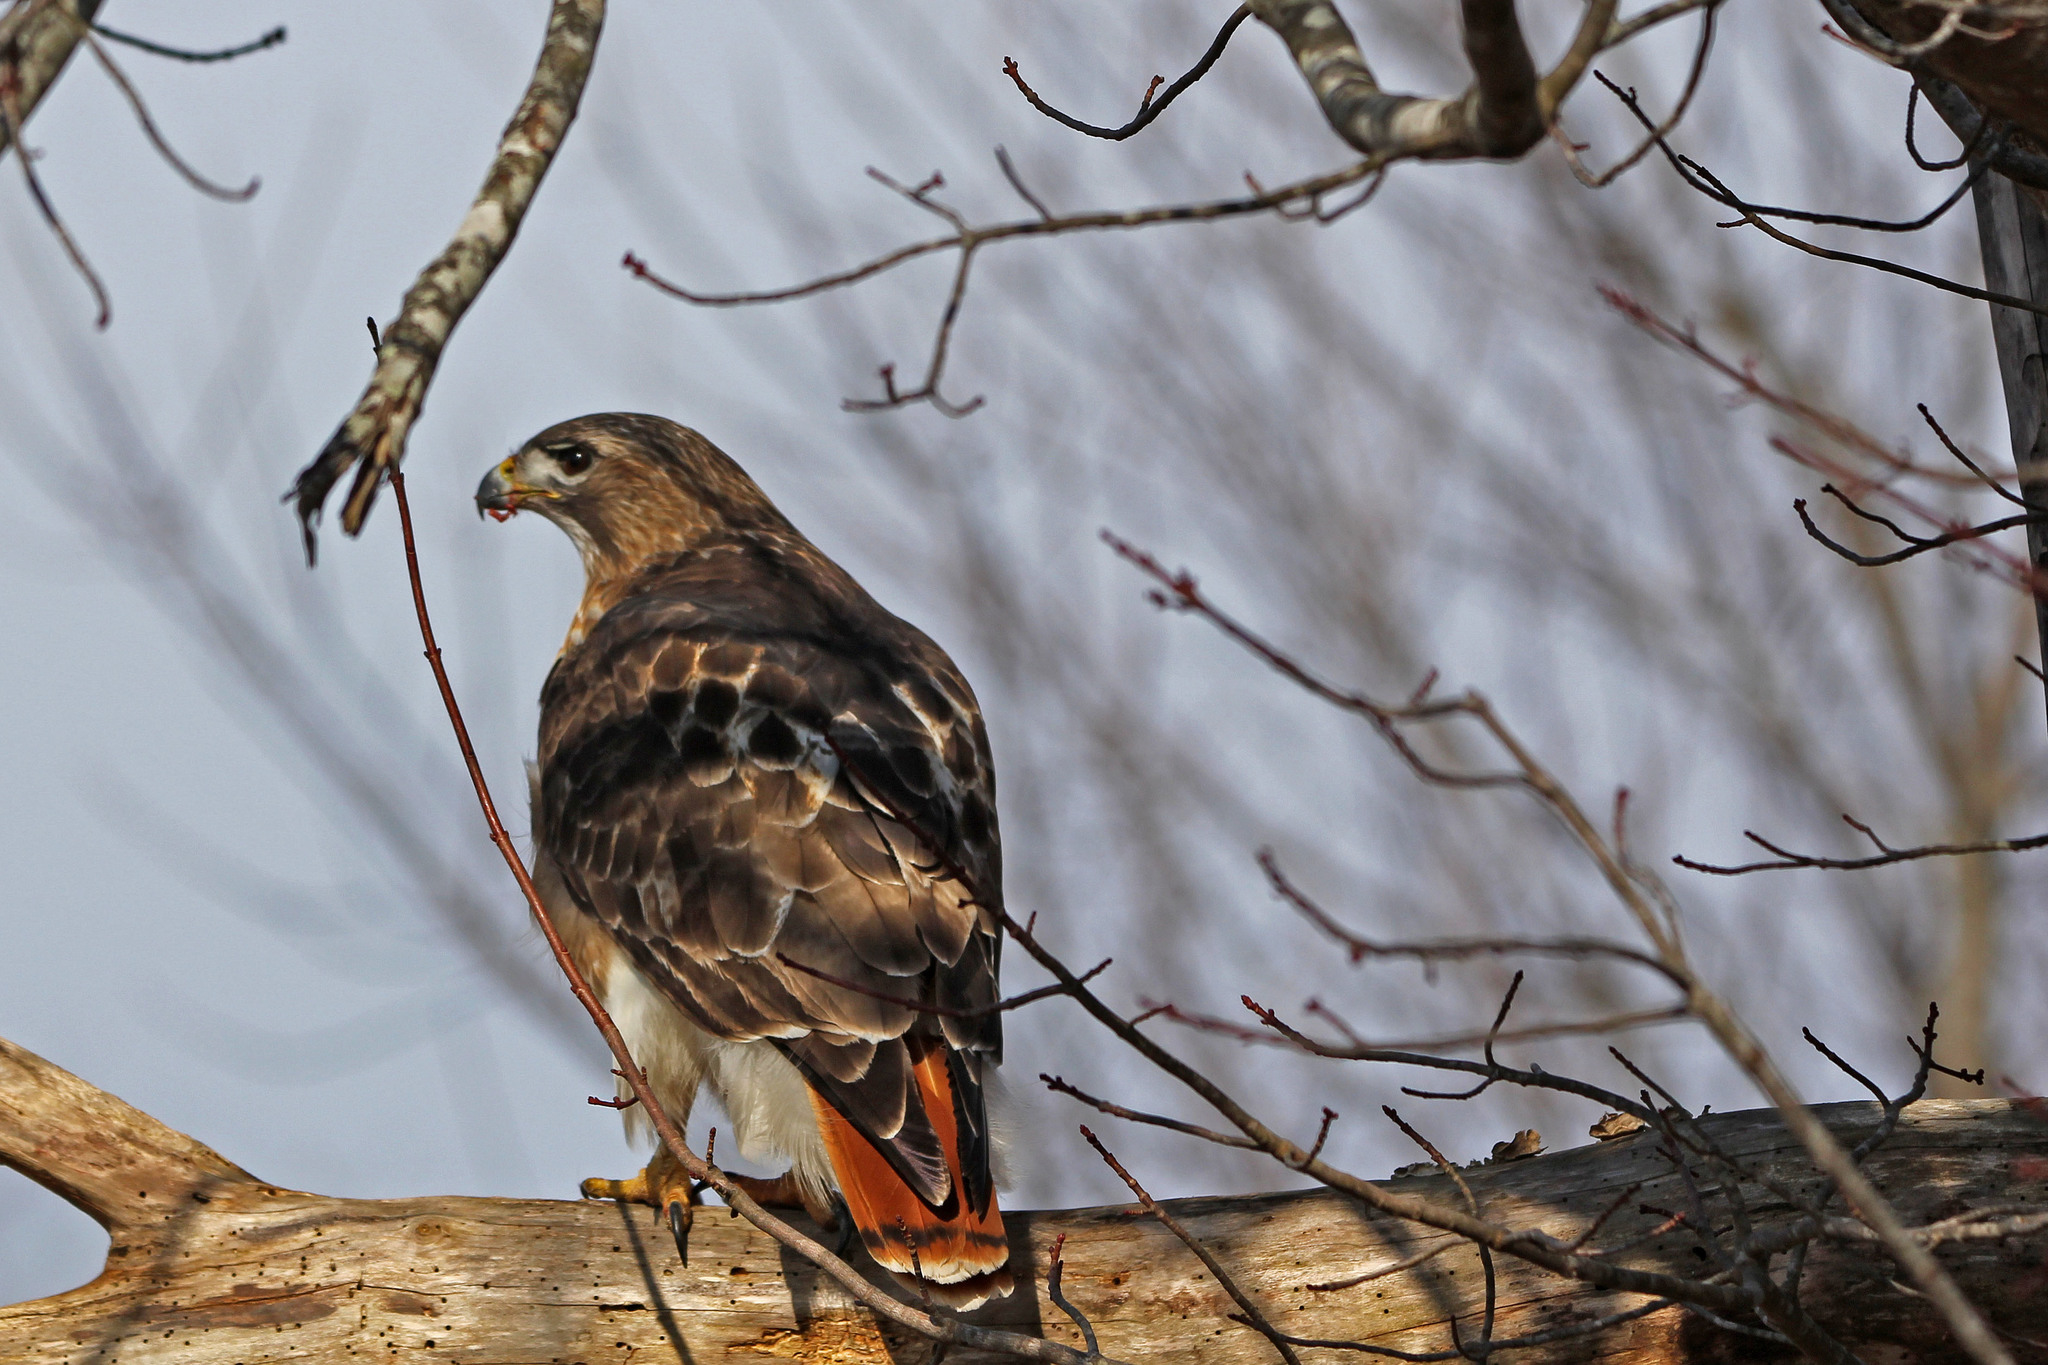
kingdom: Animalia
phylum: Chordata
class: Aves
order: Accipitriformes
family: Accipitridae
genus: Buteo
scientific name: Buteo jamaicensis
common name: Red-tailed hawk
